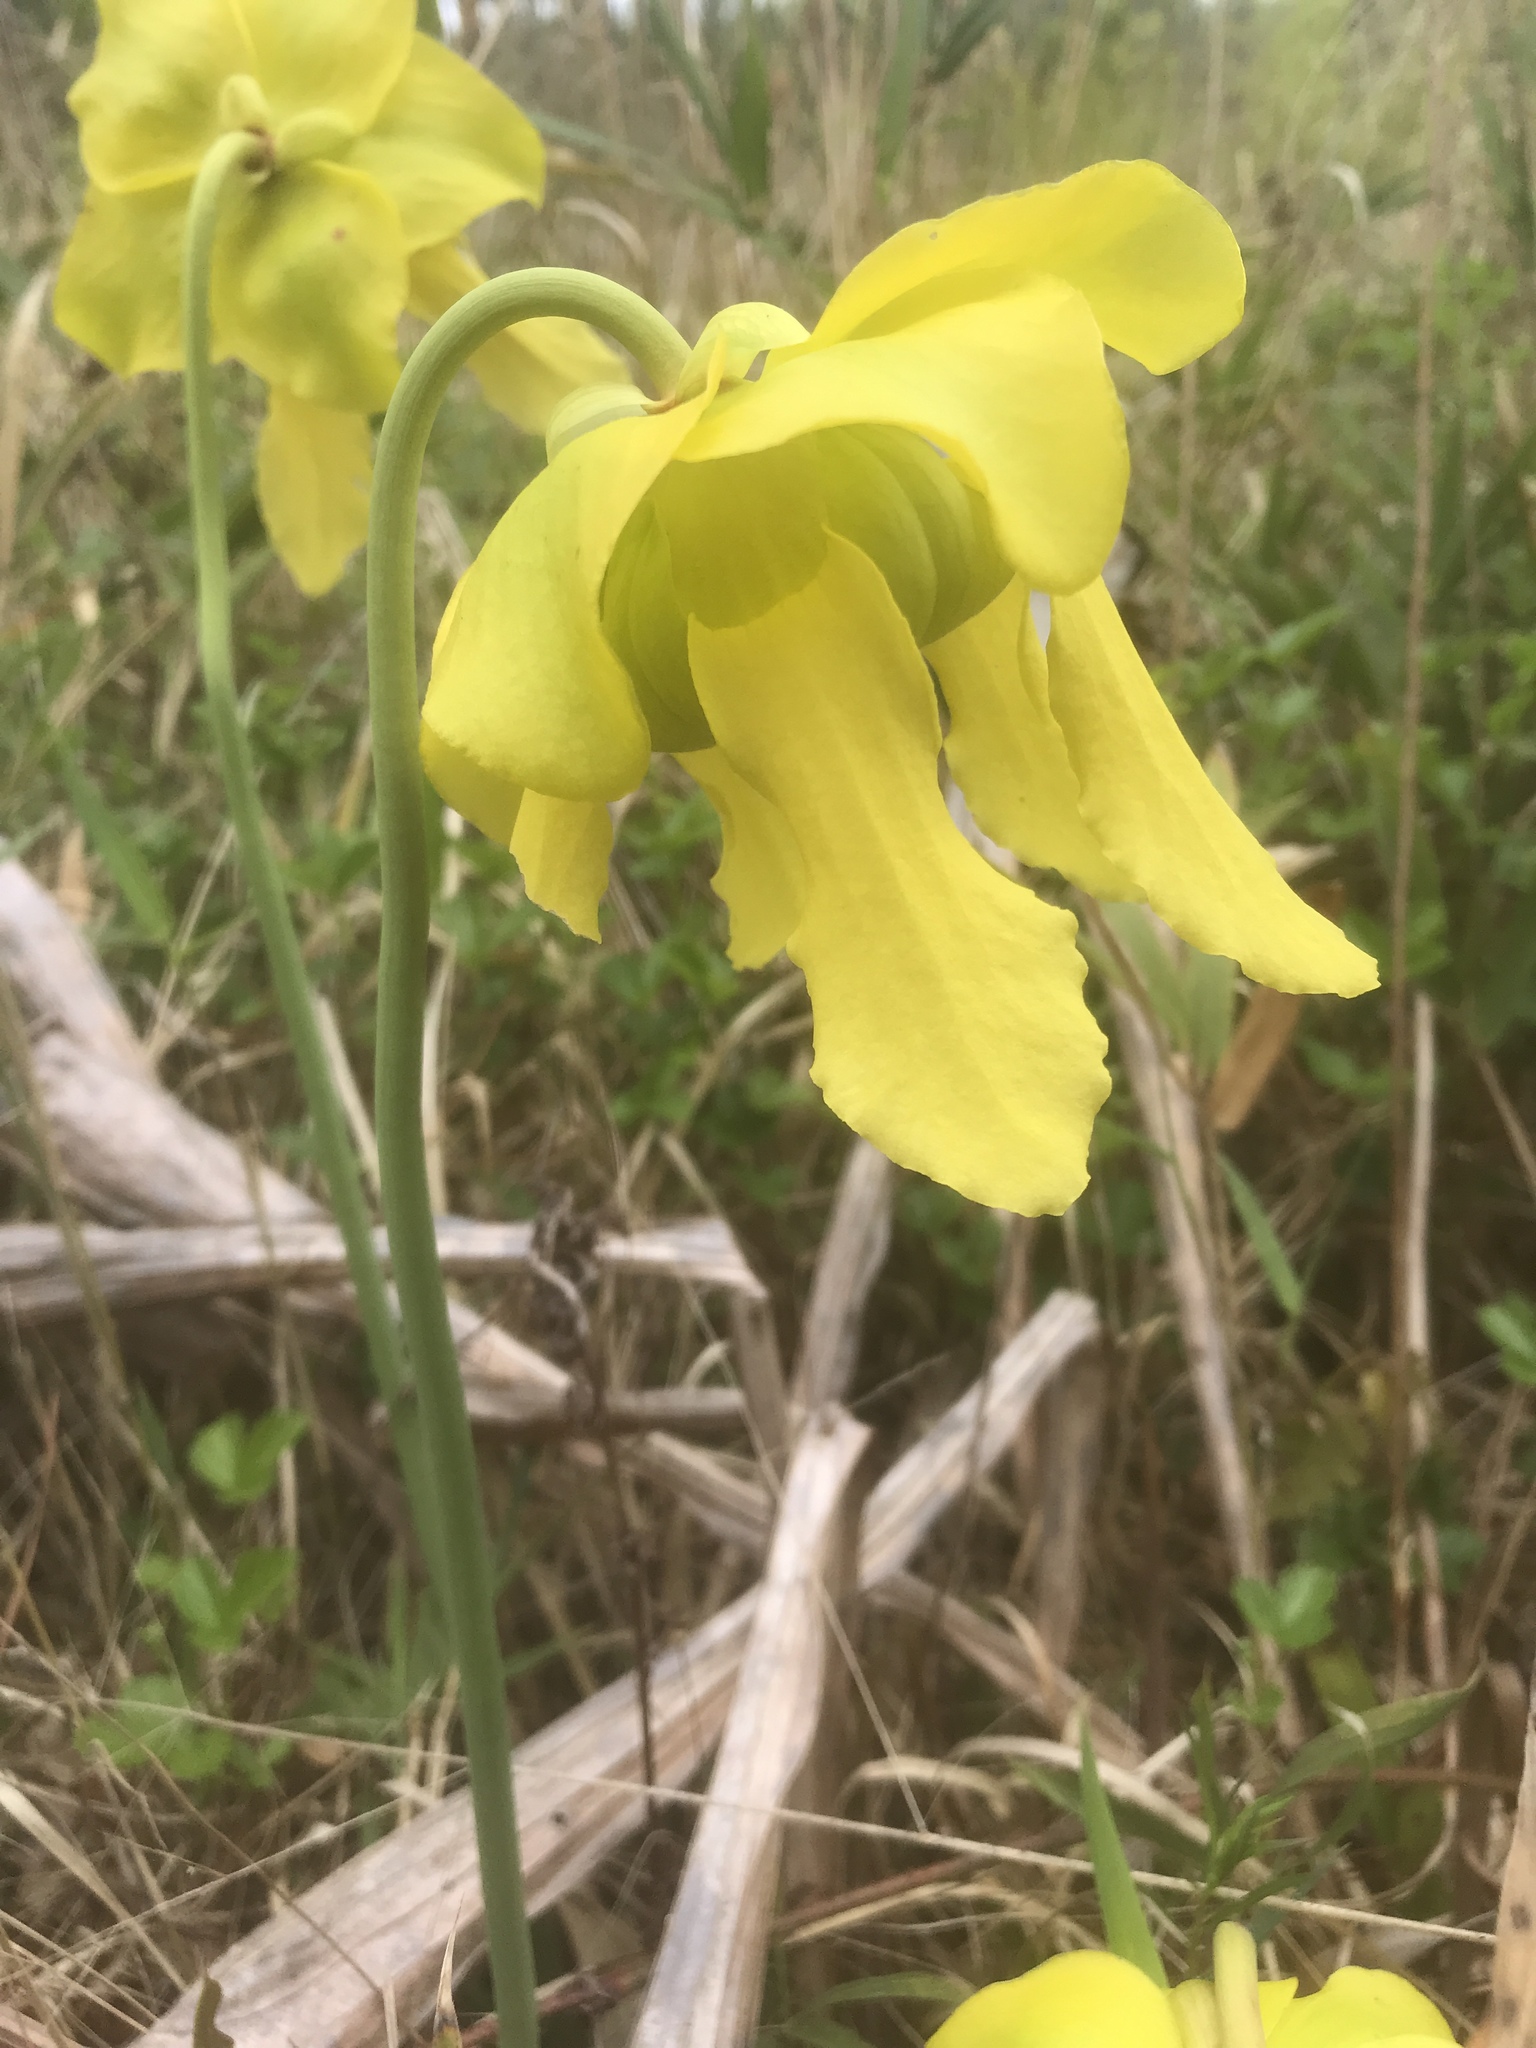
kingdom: Plantae
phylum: Tracheophyta
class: Magnoliopsida
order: Ericales
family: Sarraceniaceae
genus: Sarracenia
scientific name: Sarracenia flava
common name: Trumpets
